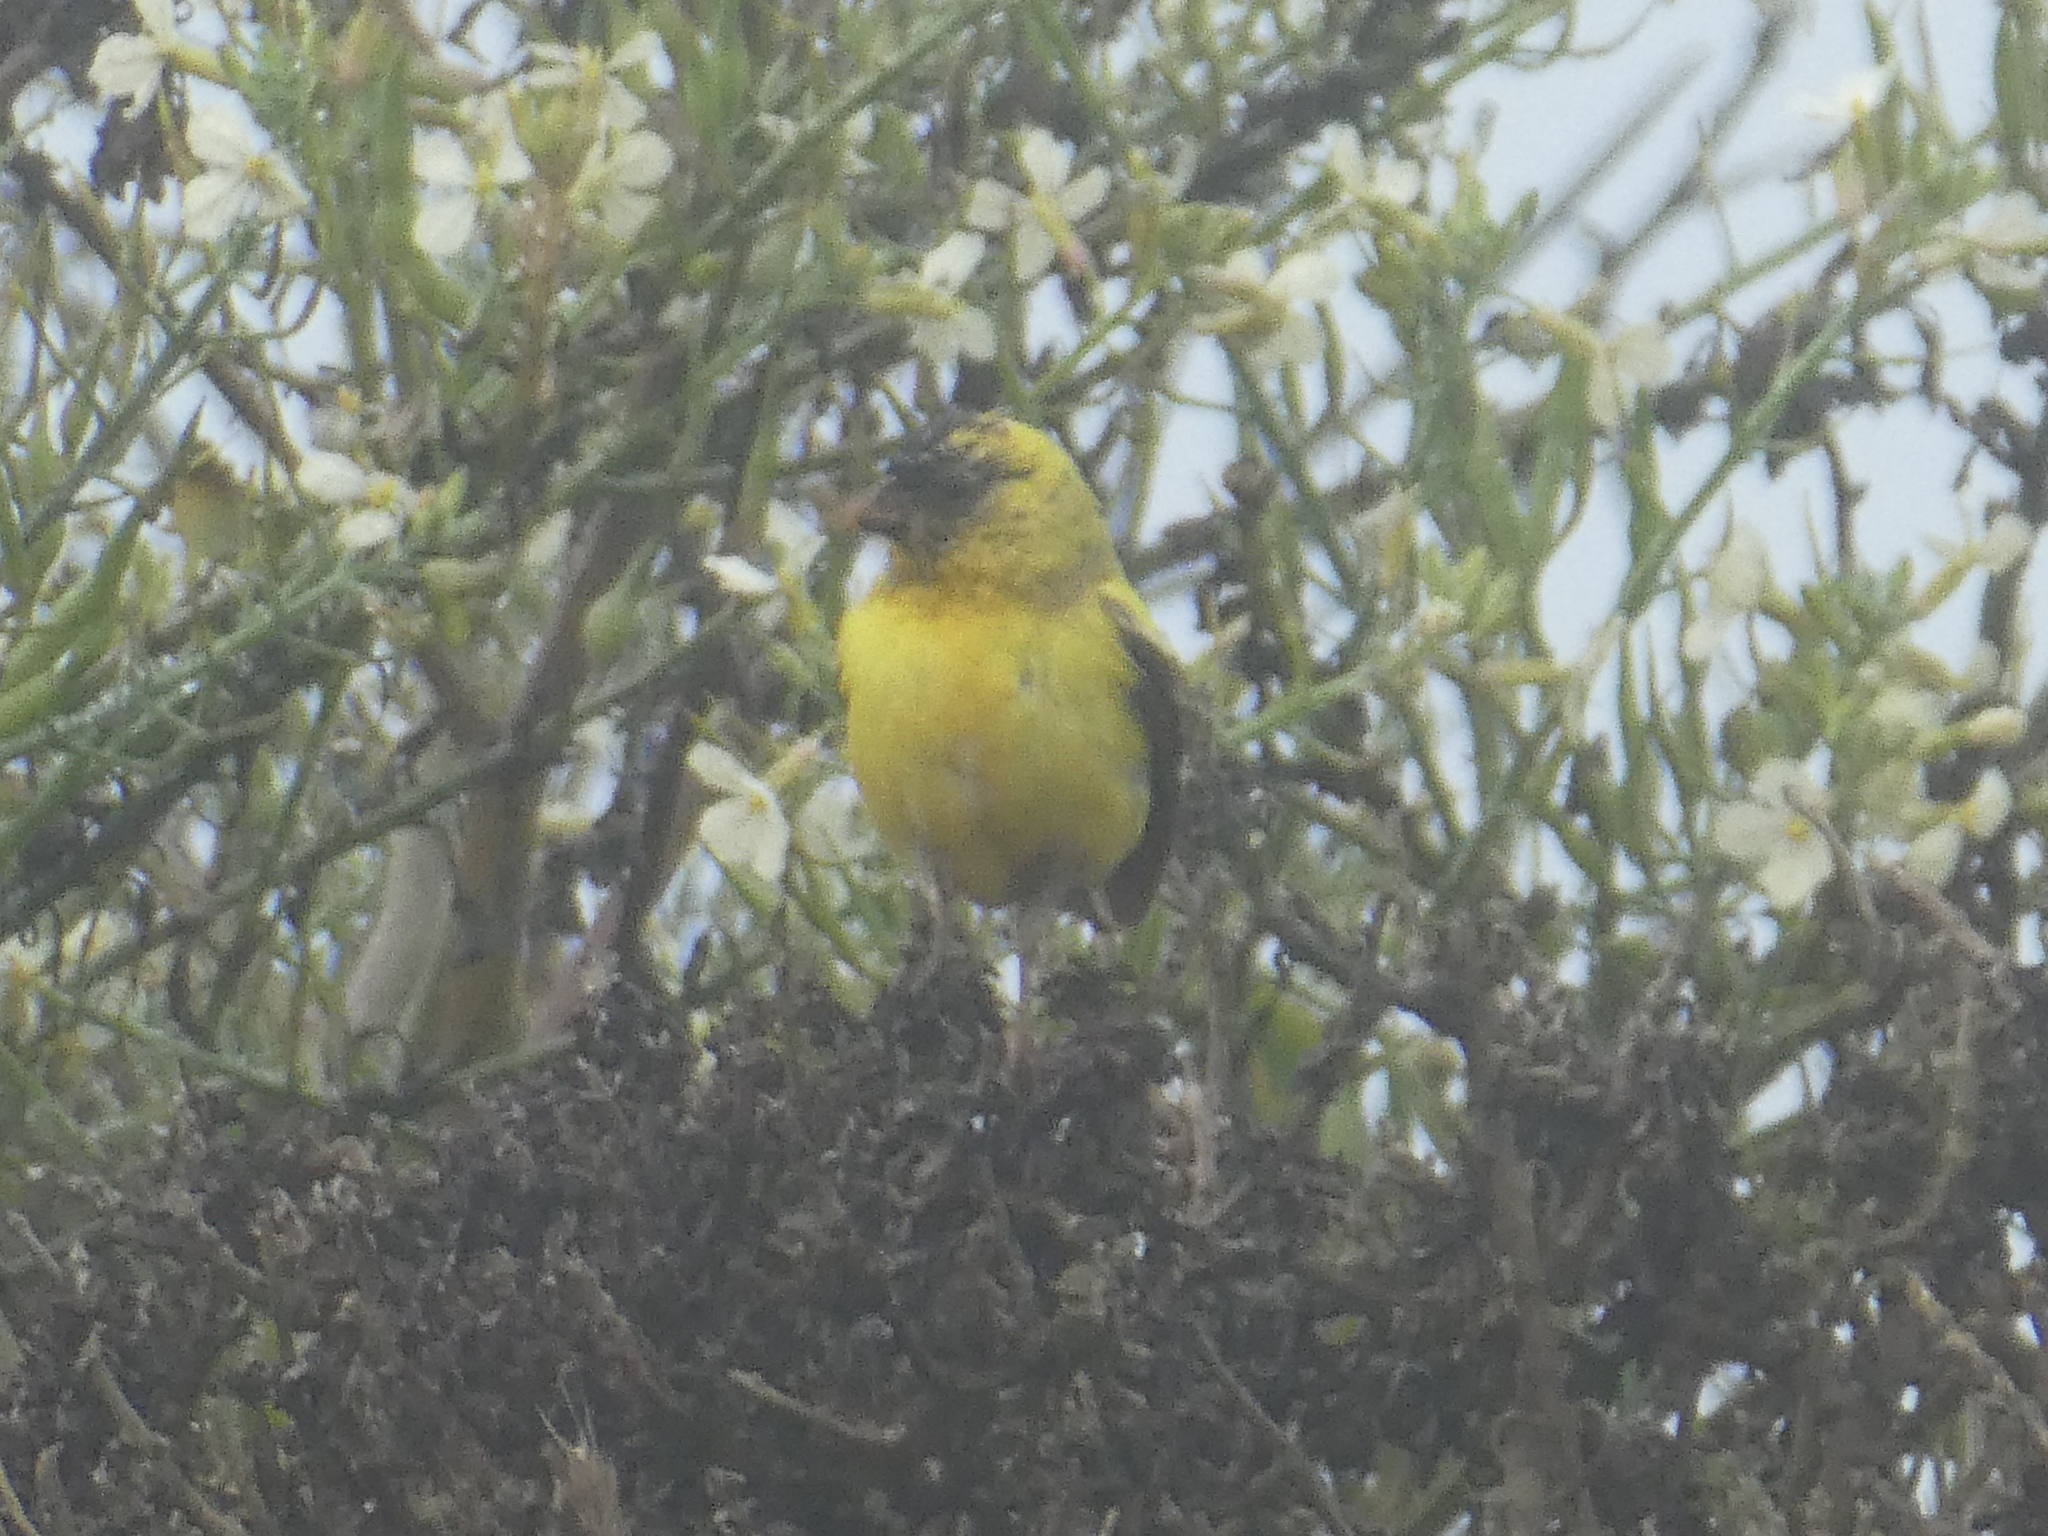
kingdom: Animalia
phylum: Chordata
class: Aves
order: Passeriformes
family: Fringillidae
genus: Spinus
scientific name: Spinus tristis
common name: American goldfinch
